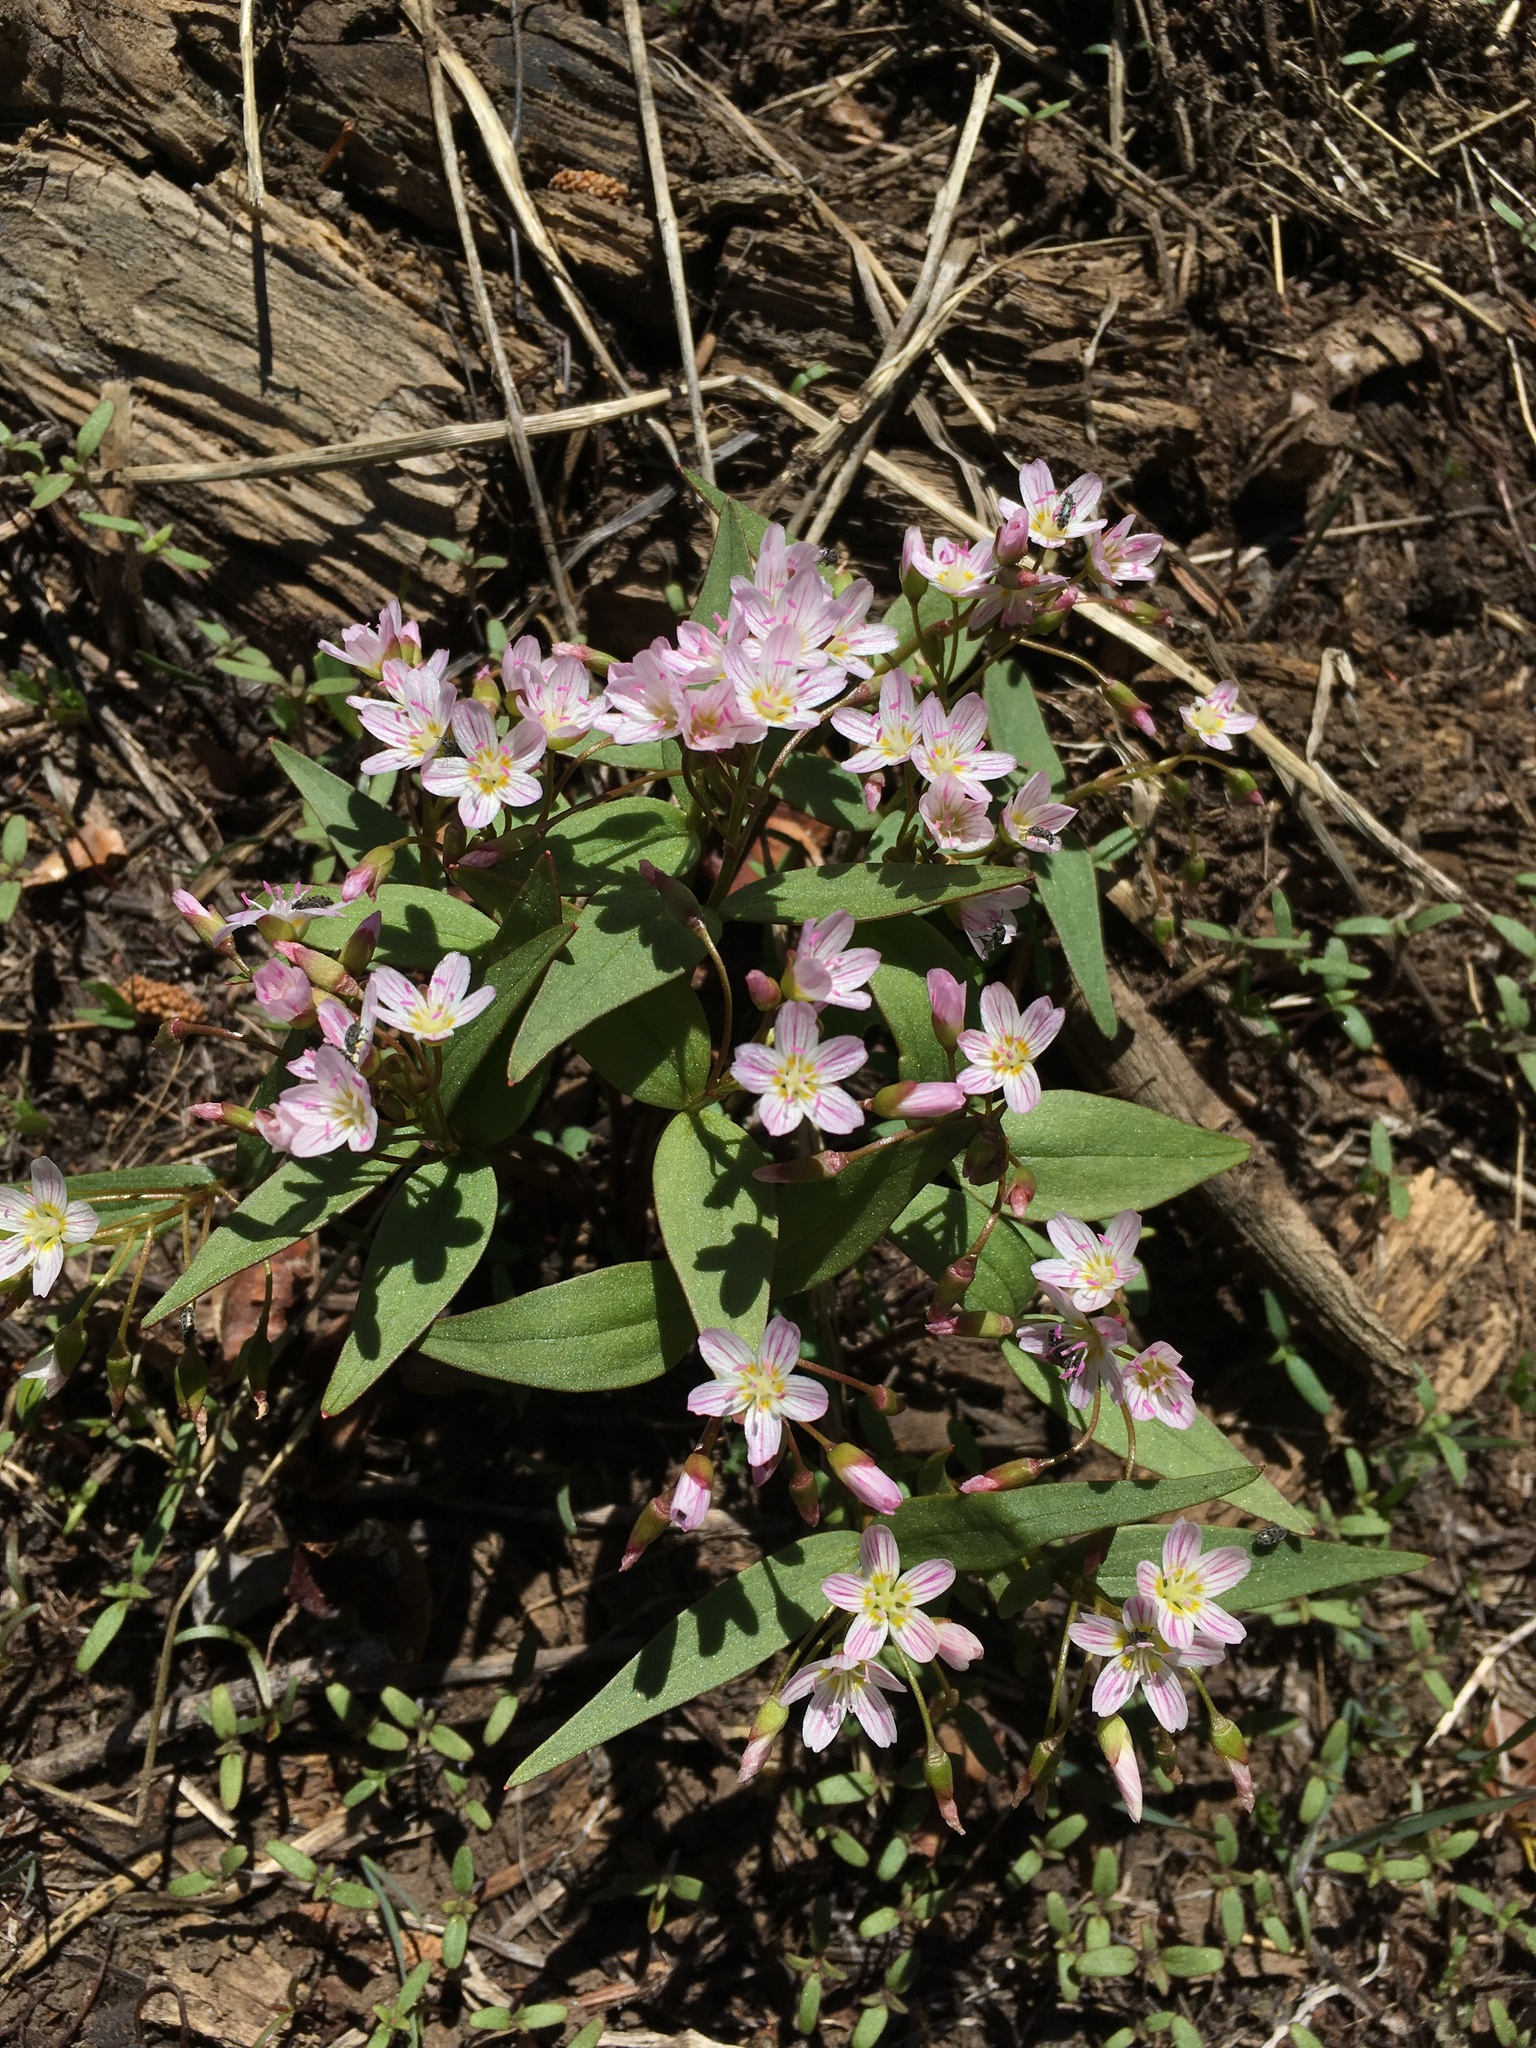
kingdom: Plantae
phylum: Tracheophyta
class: Magnoliopsida
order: Caryophyllales
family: Montiaceae
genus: Claytonia
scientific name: Claytonia lanceolata
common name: Western spring-beauty
